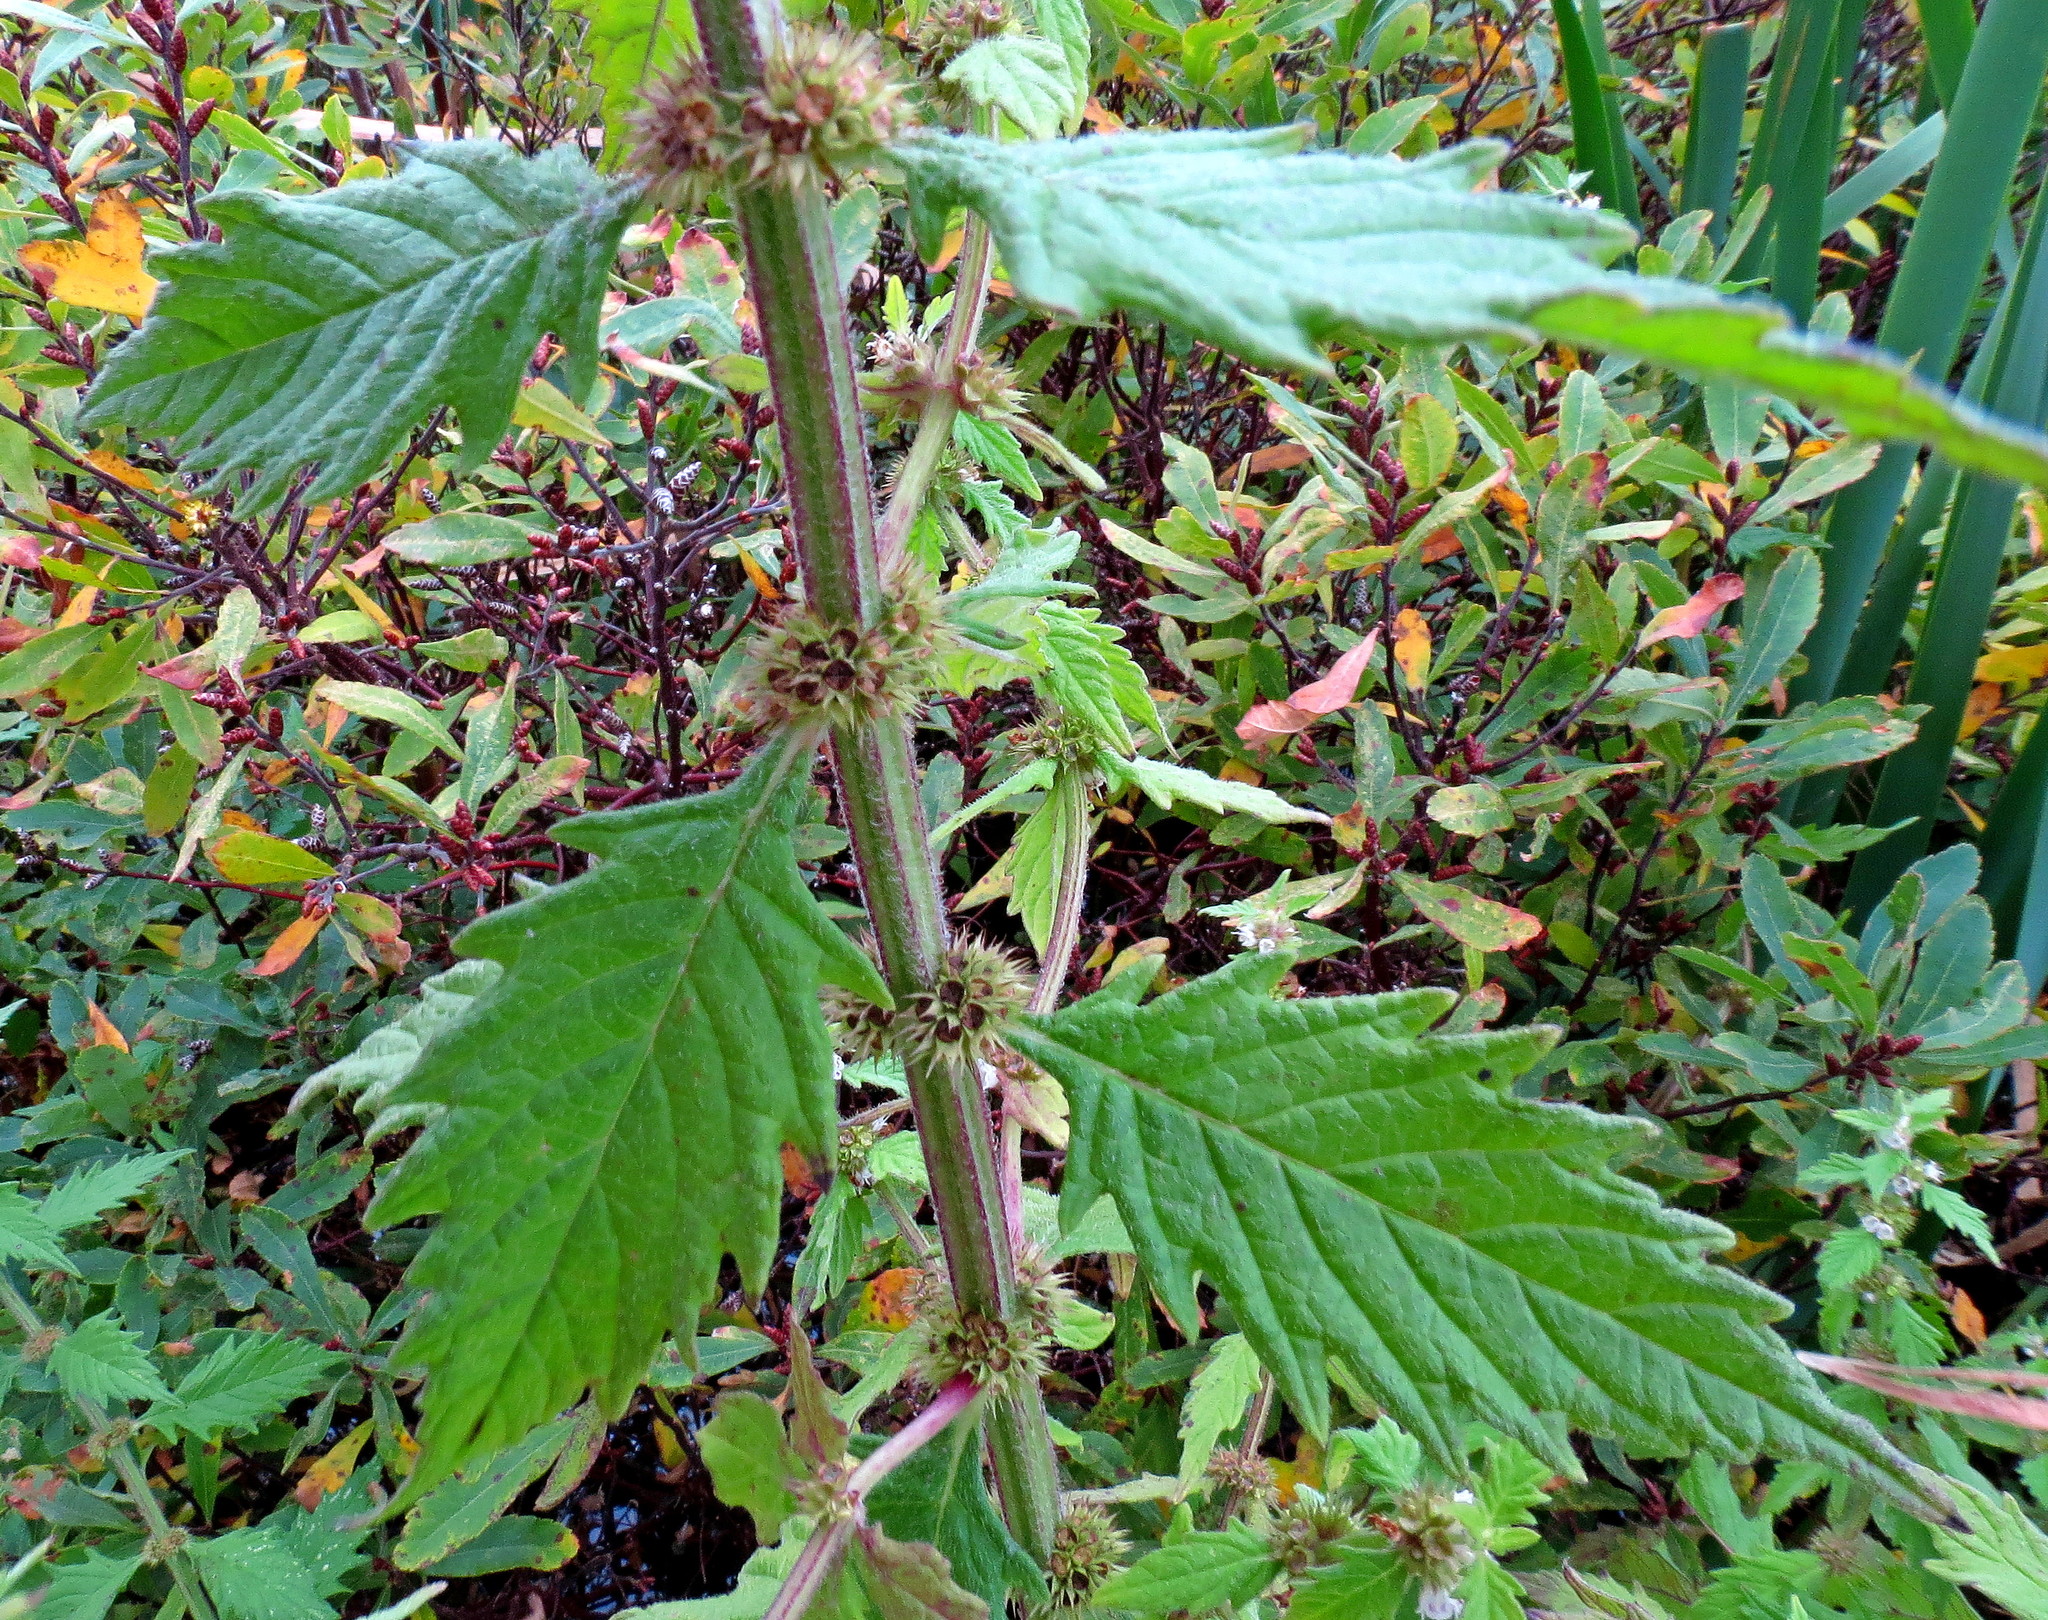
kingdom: Plantae
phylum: Tracheophyta
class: Magnoliopsida
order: Lamiales
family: Lamiaceae
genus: Lycopus
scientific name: Lycopus europaeus
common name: European bugleweed
